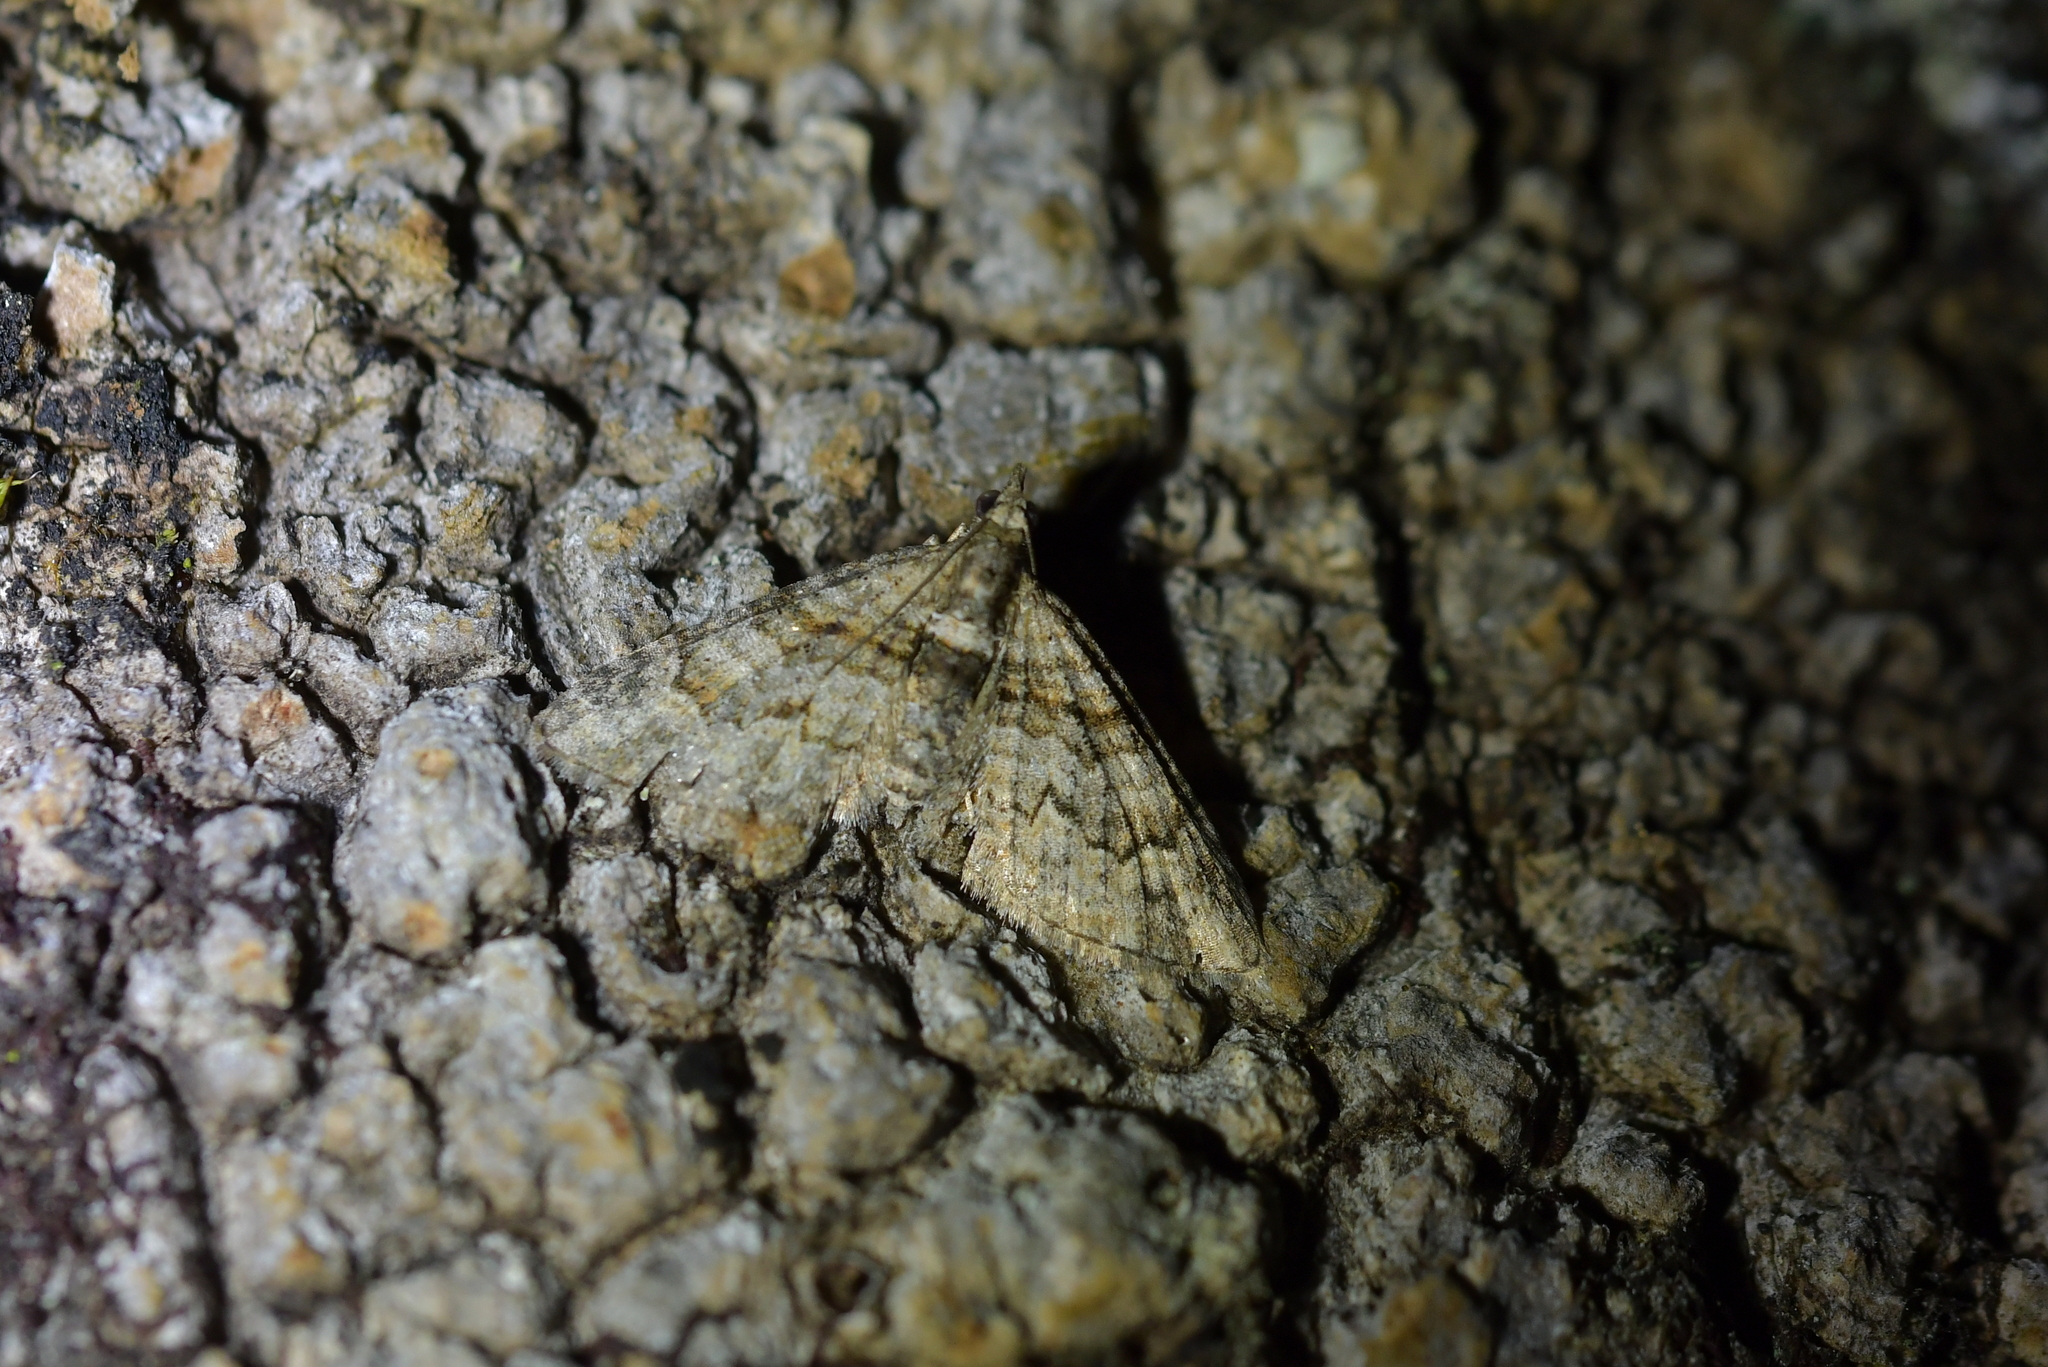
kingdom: Animalia
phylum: Arthropoda
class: Insecta
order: Lepidoptera
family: Geometridae
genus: Phrissogonus
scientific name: Phrissogonus laticostata
